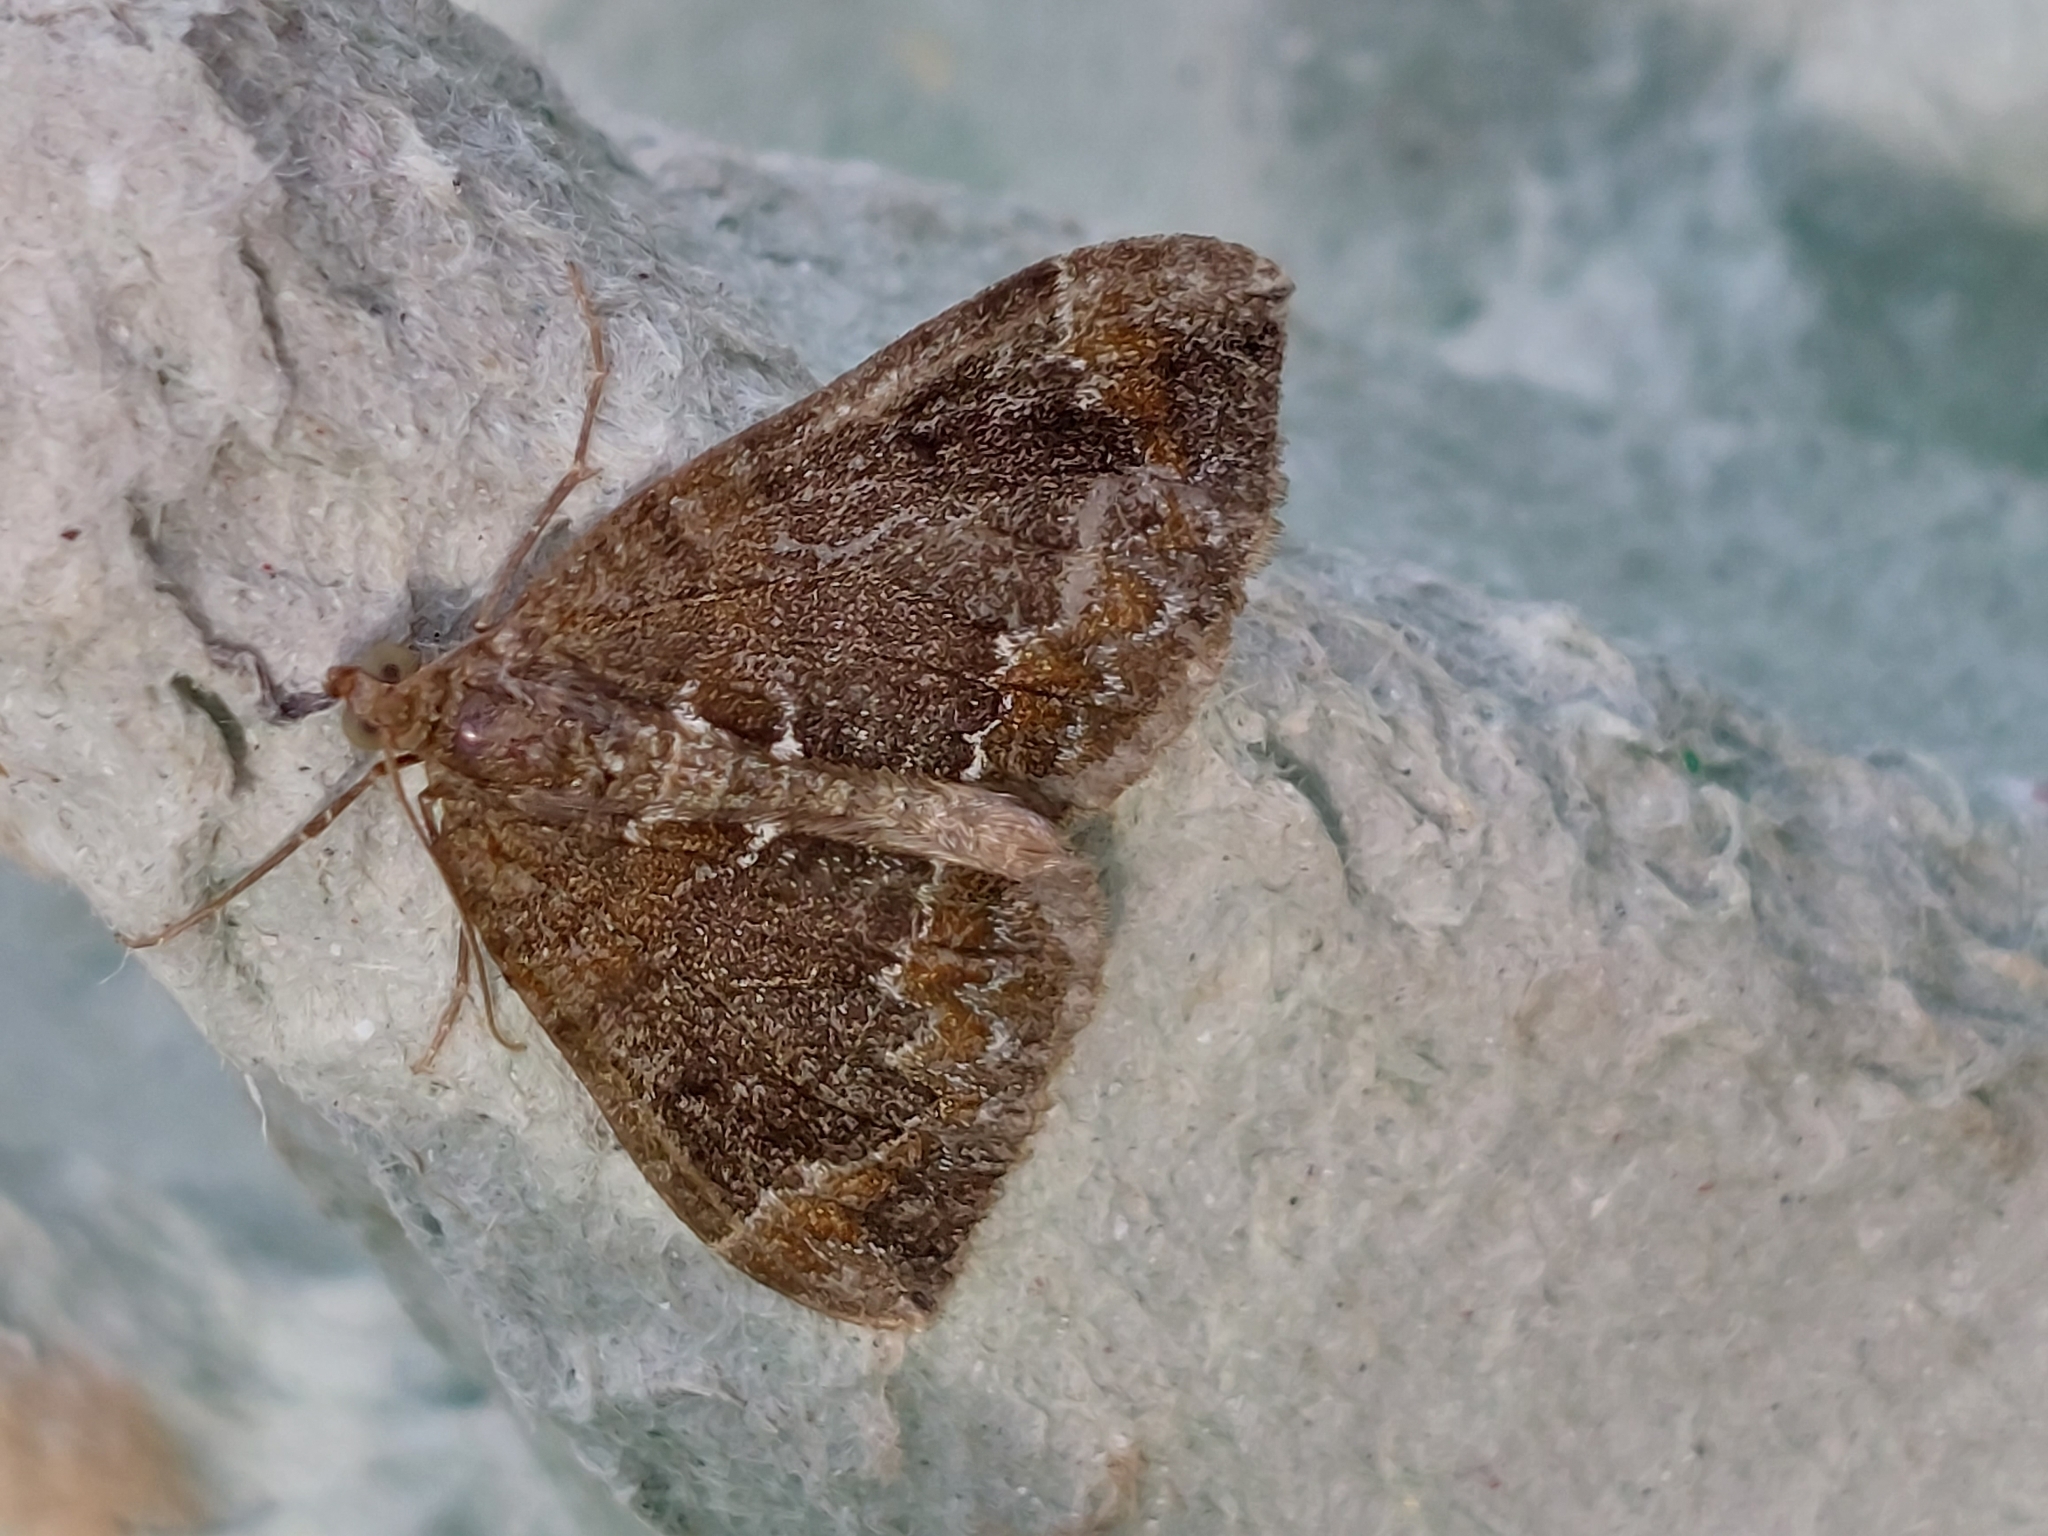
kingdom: Animalia
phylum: Arthropoda
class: Insecta
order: Lepidoptera
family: Geometridae
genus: Dysstroma
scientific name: Dysstroma truncata
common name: Common marbled carpet
